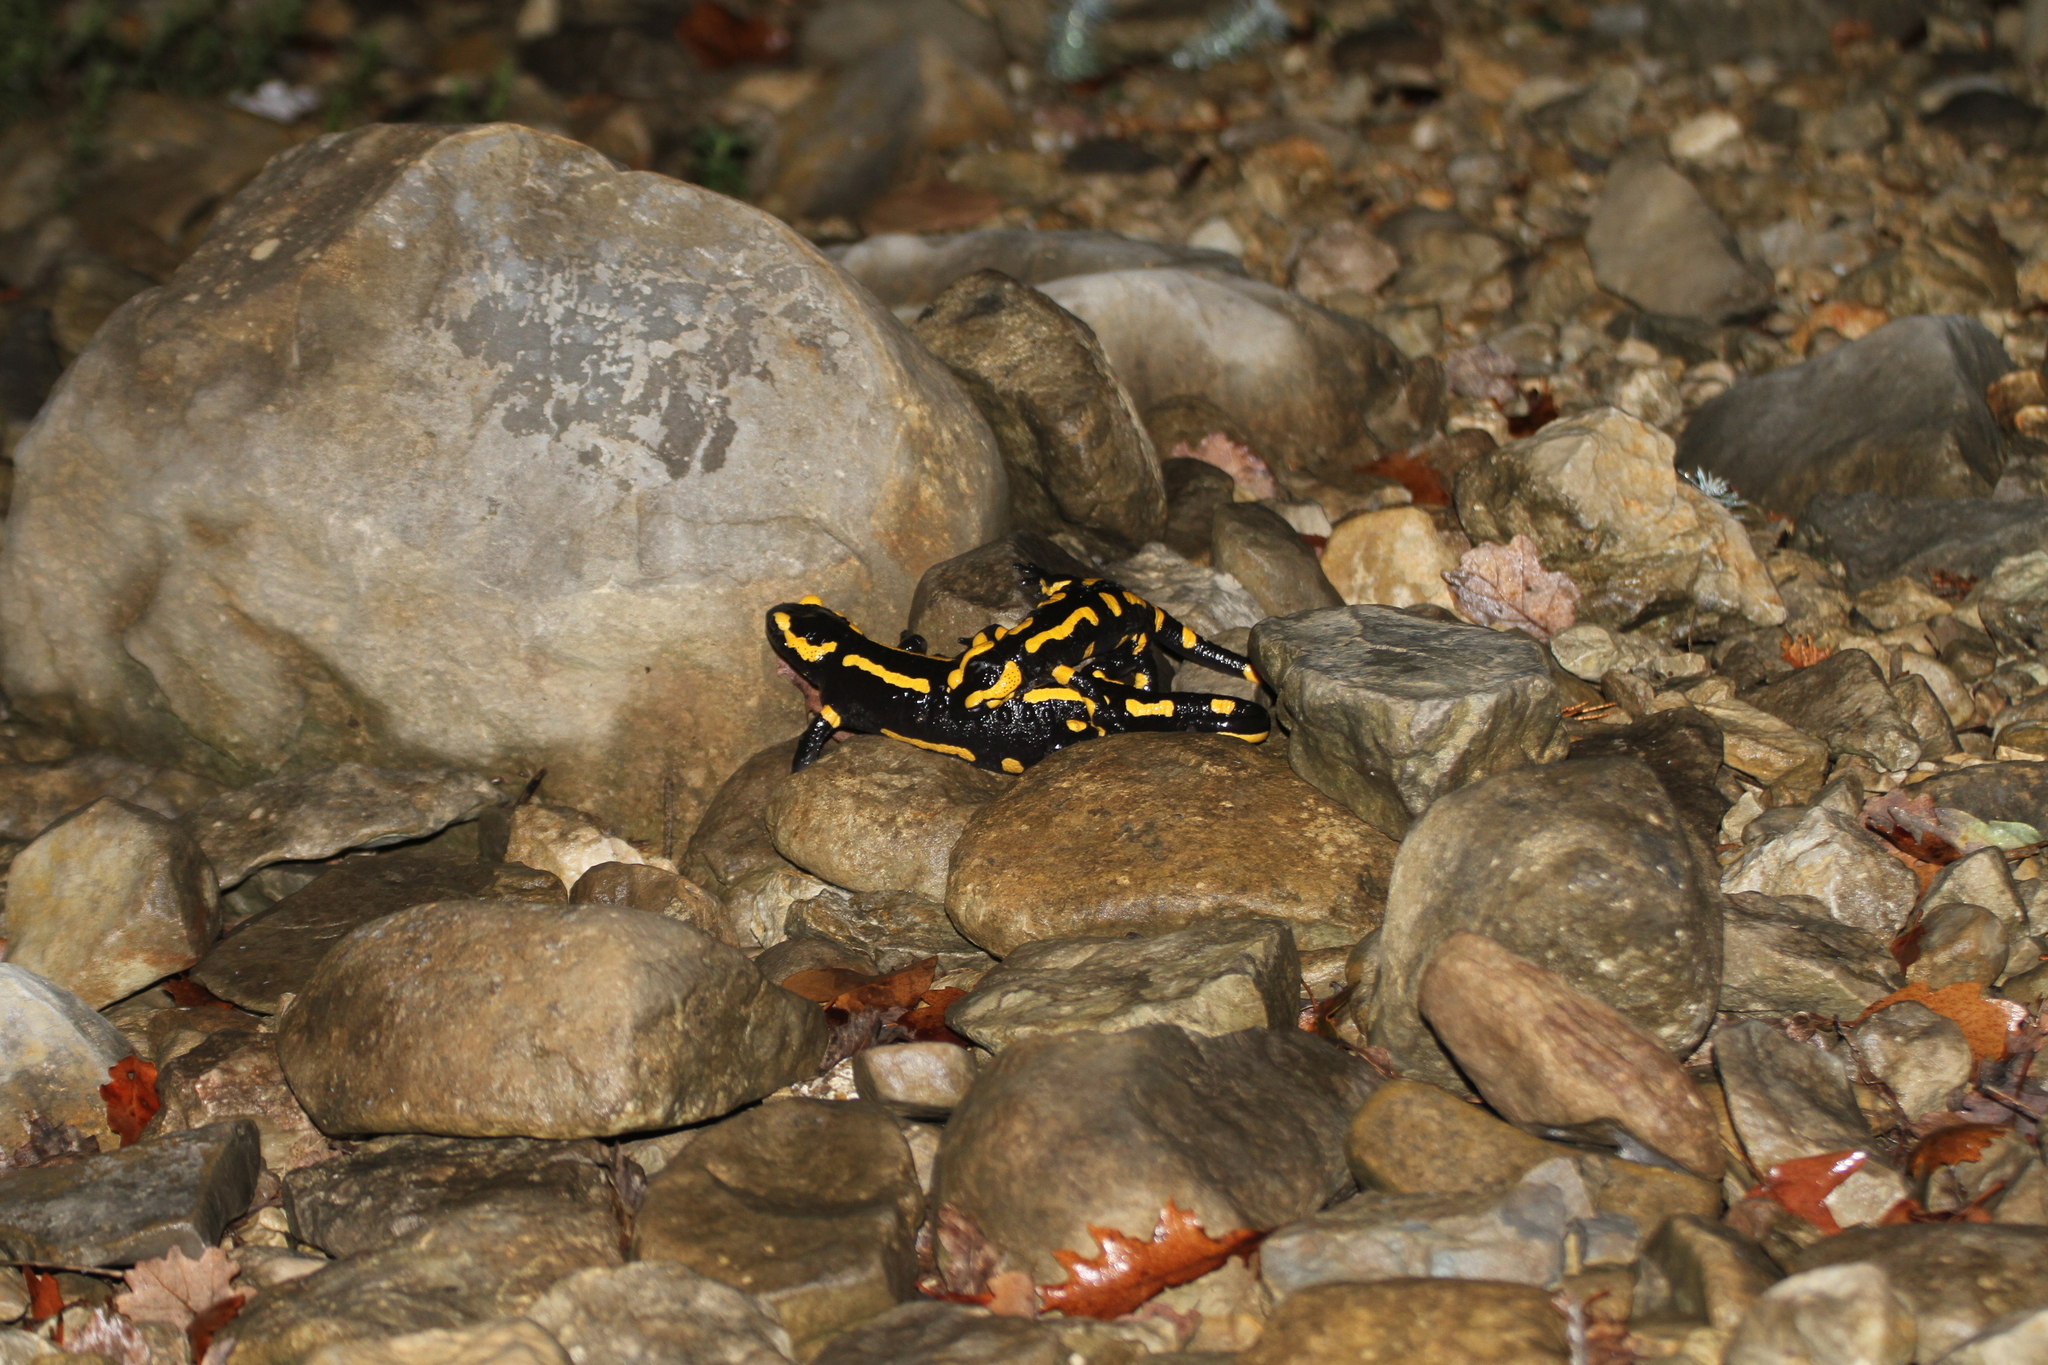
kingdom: Animalia
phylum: Chordata
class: Amphibia
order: Caudata
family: Salamandridae
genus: Salamandra
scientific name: Salamandra salamandra
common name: Fire salamander
